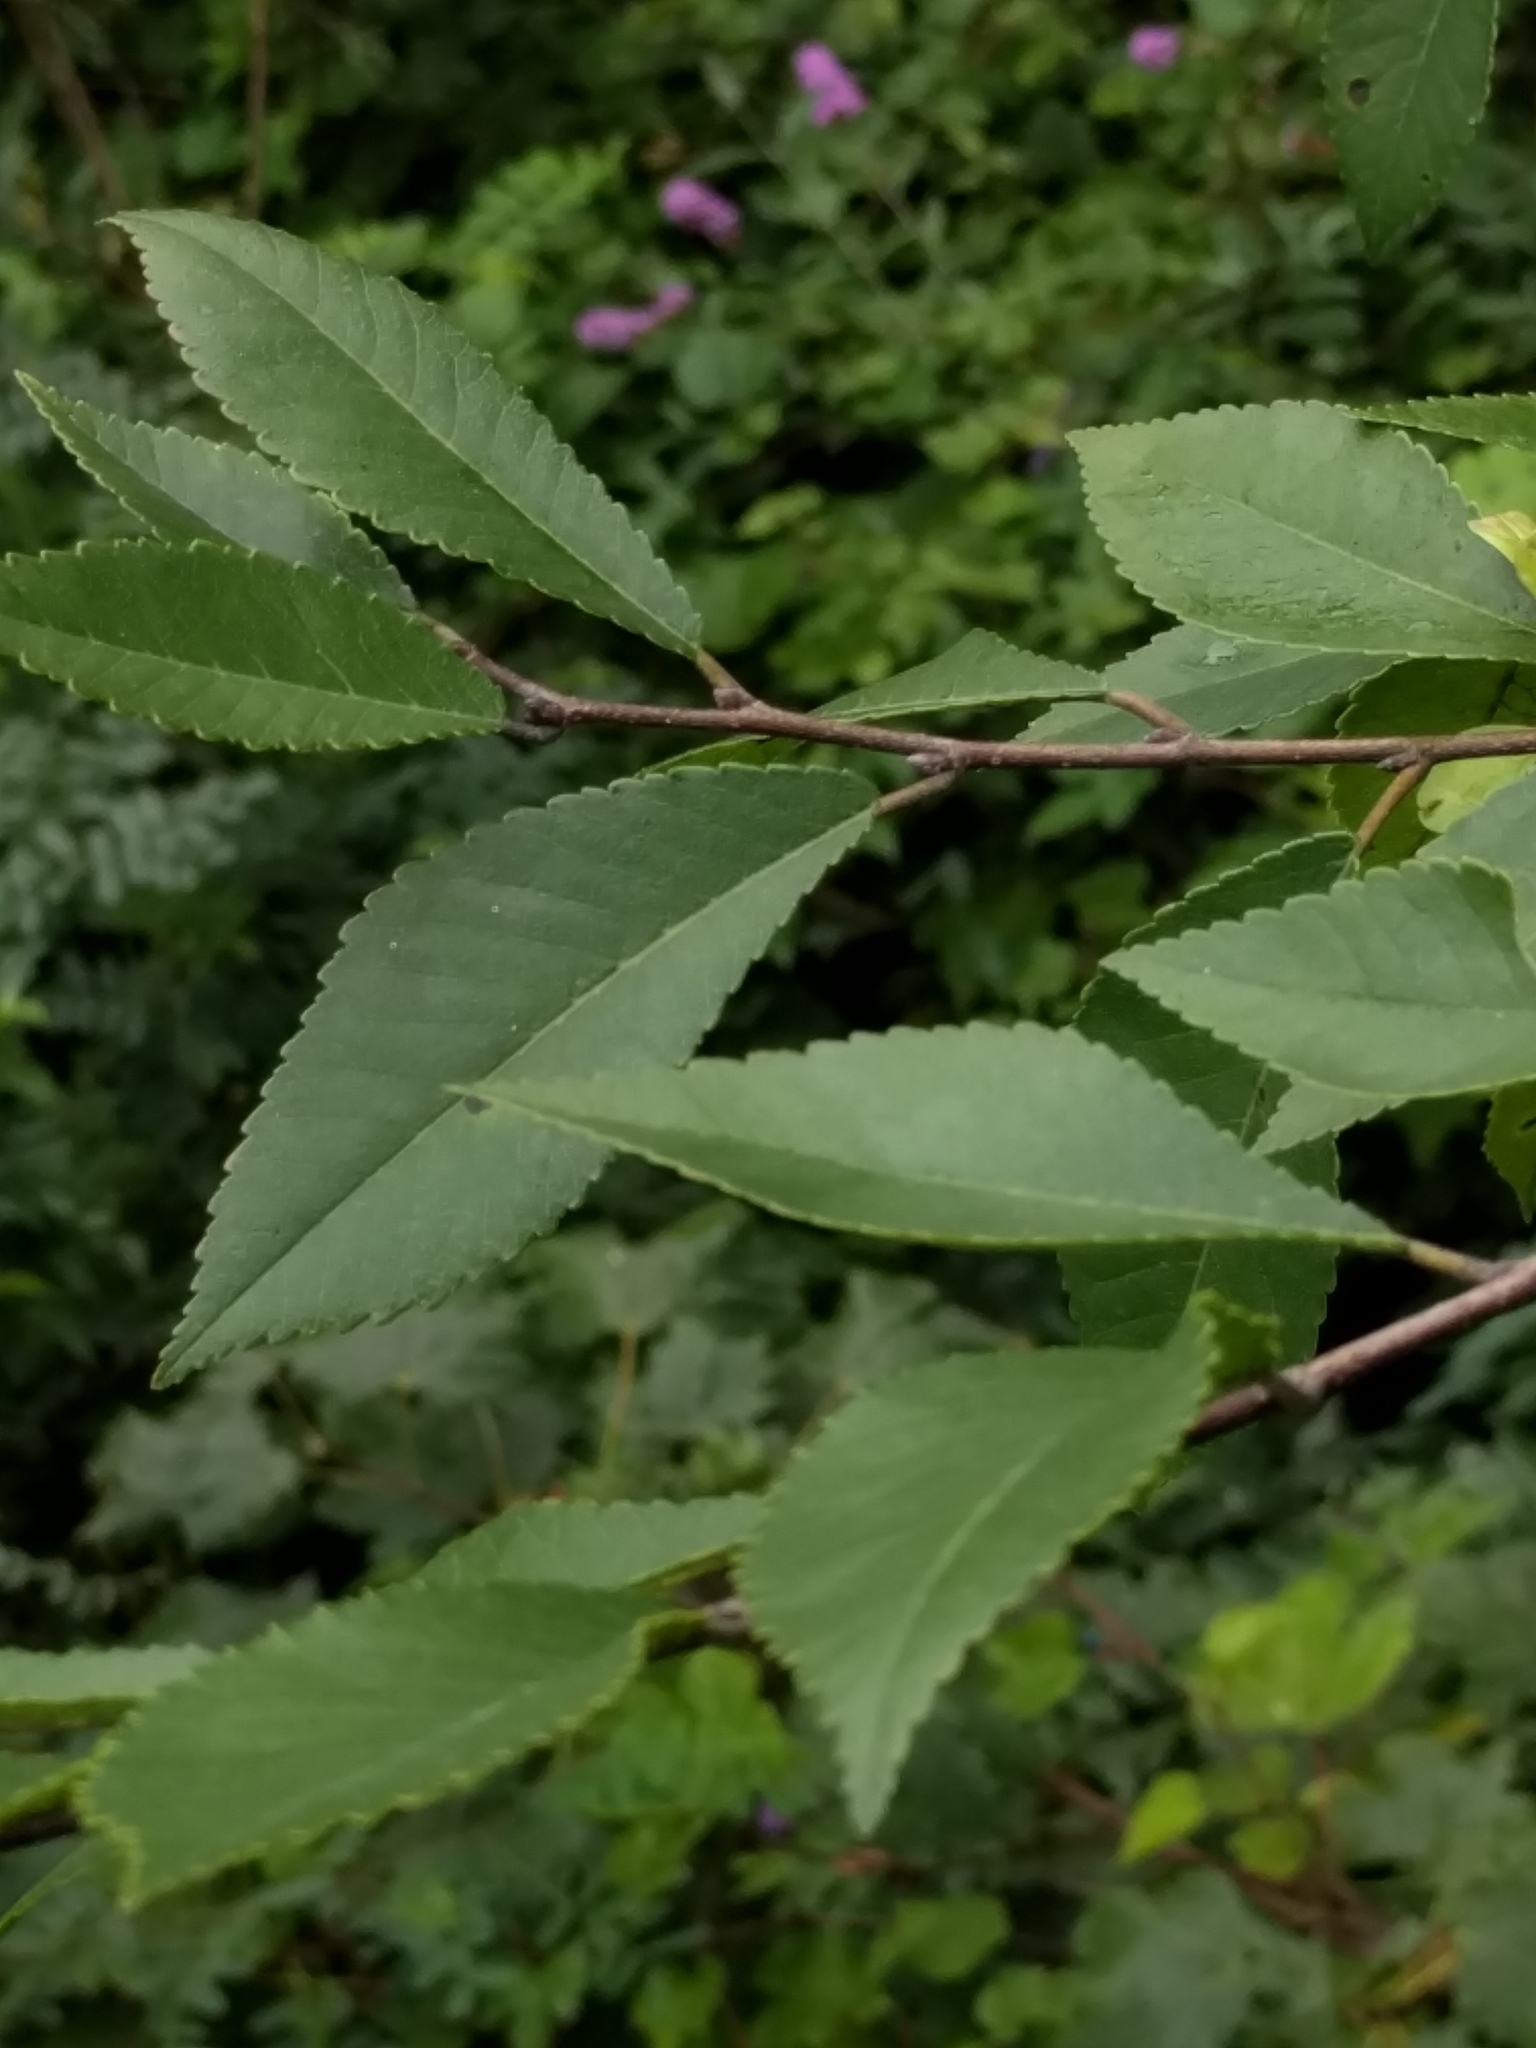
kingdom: Plantae
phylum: Tracheophyta
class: Magnoliopsida
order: Rosales
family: Ulmaceae
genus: Ulmus
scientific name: Ulmus parvifolia
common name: Chinese elm
